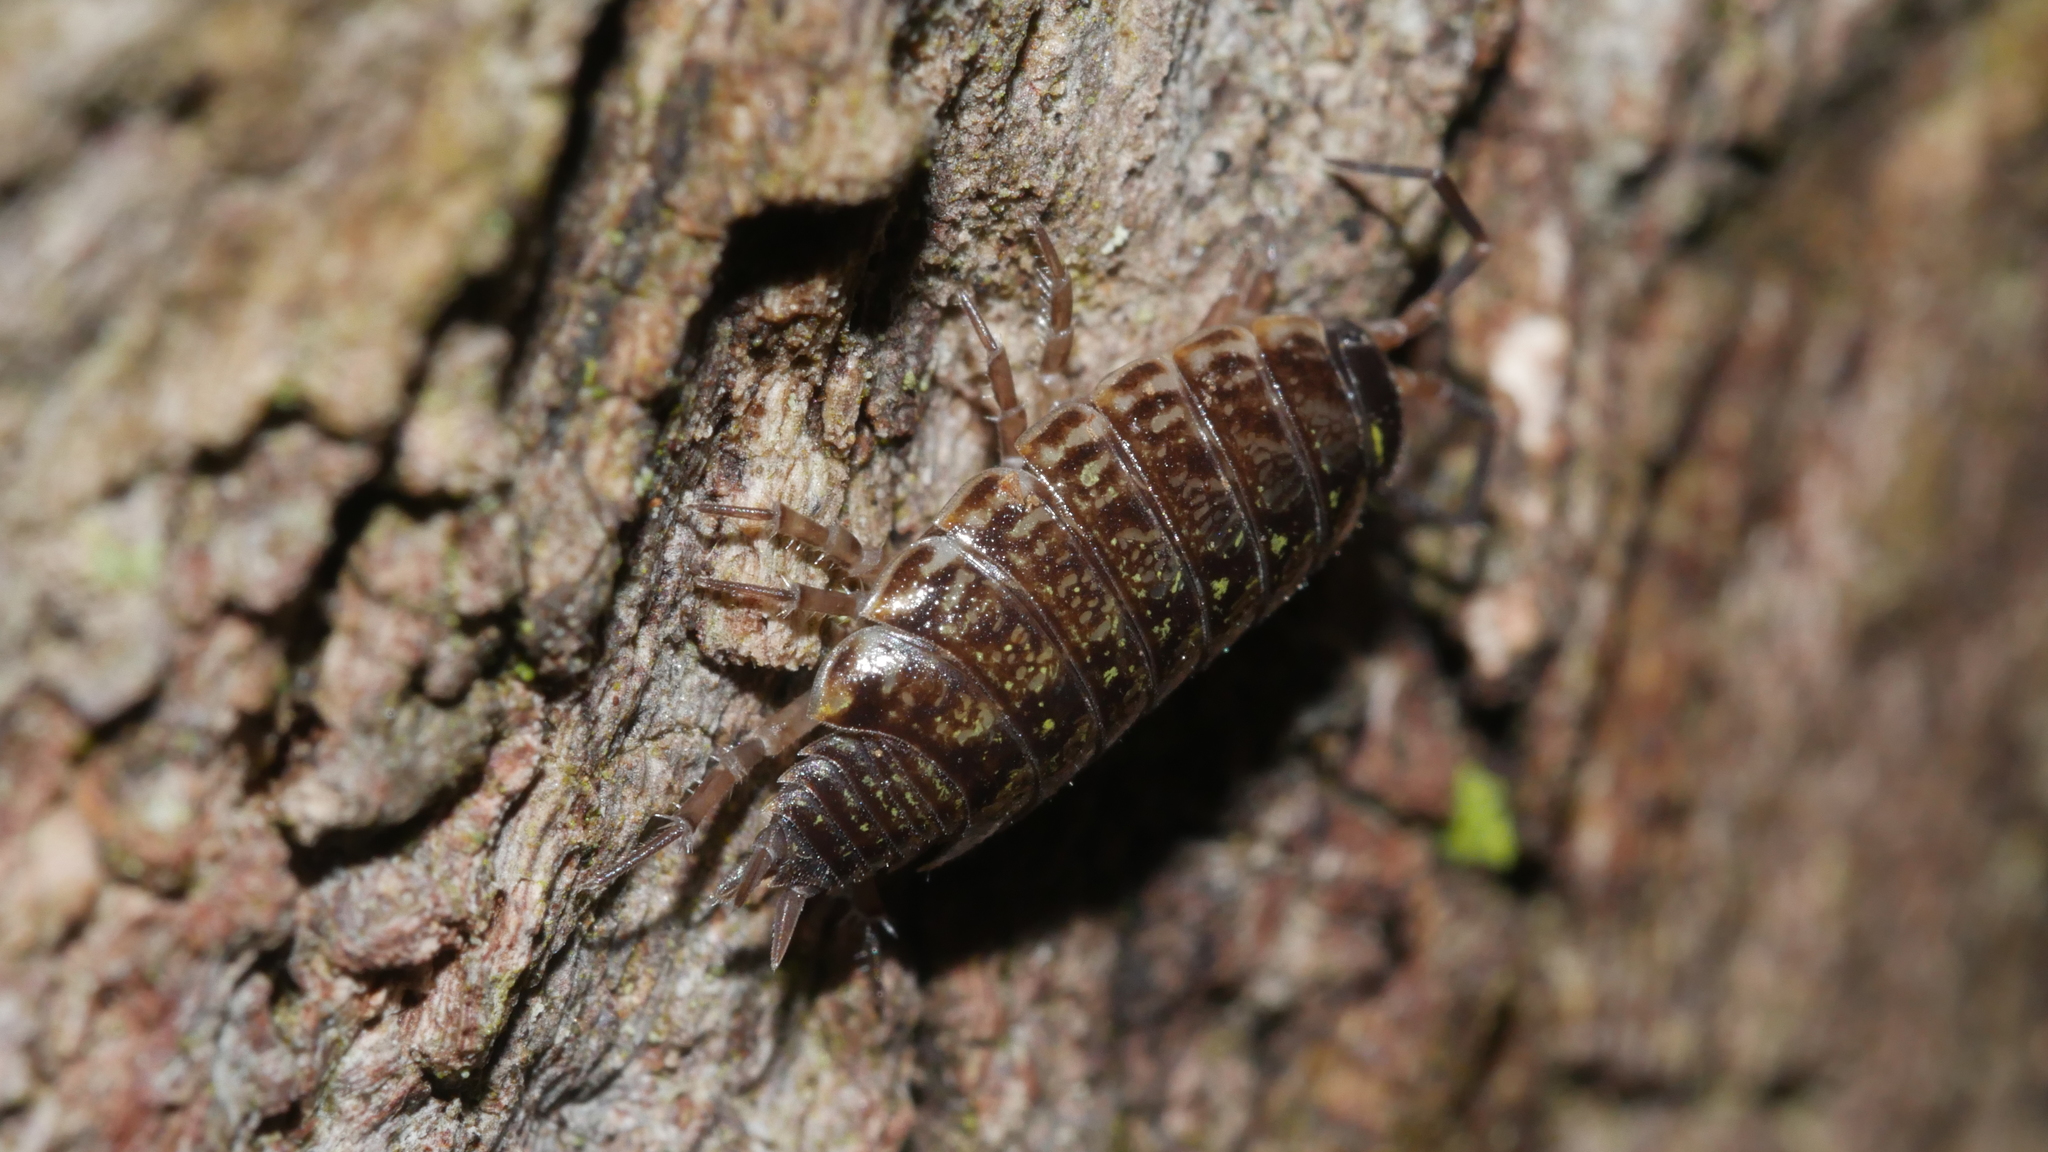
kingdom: Animalia
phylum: Arthropoda
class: Malacostraca
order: Isopoda
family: Philosciidae
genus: Philoscia
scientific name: Philoscia muscorum
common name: Common striped woodlouse
